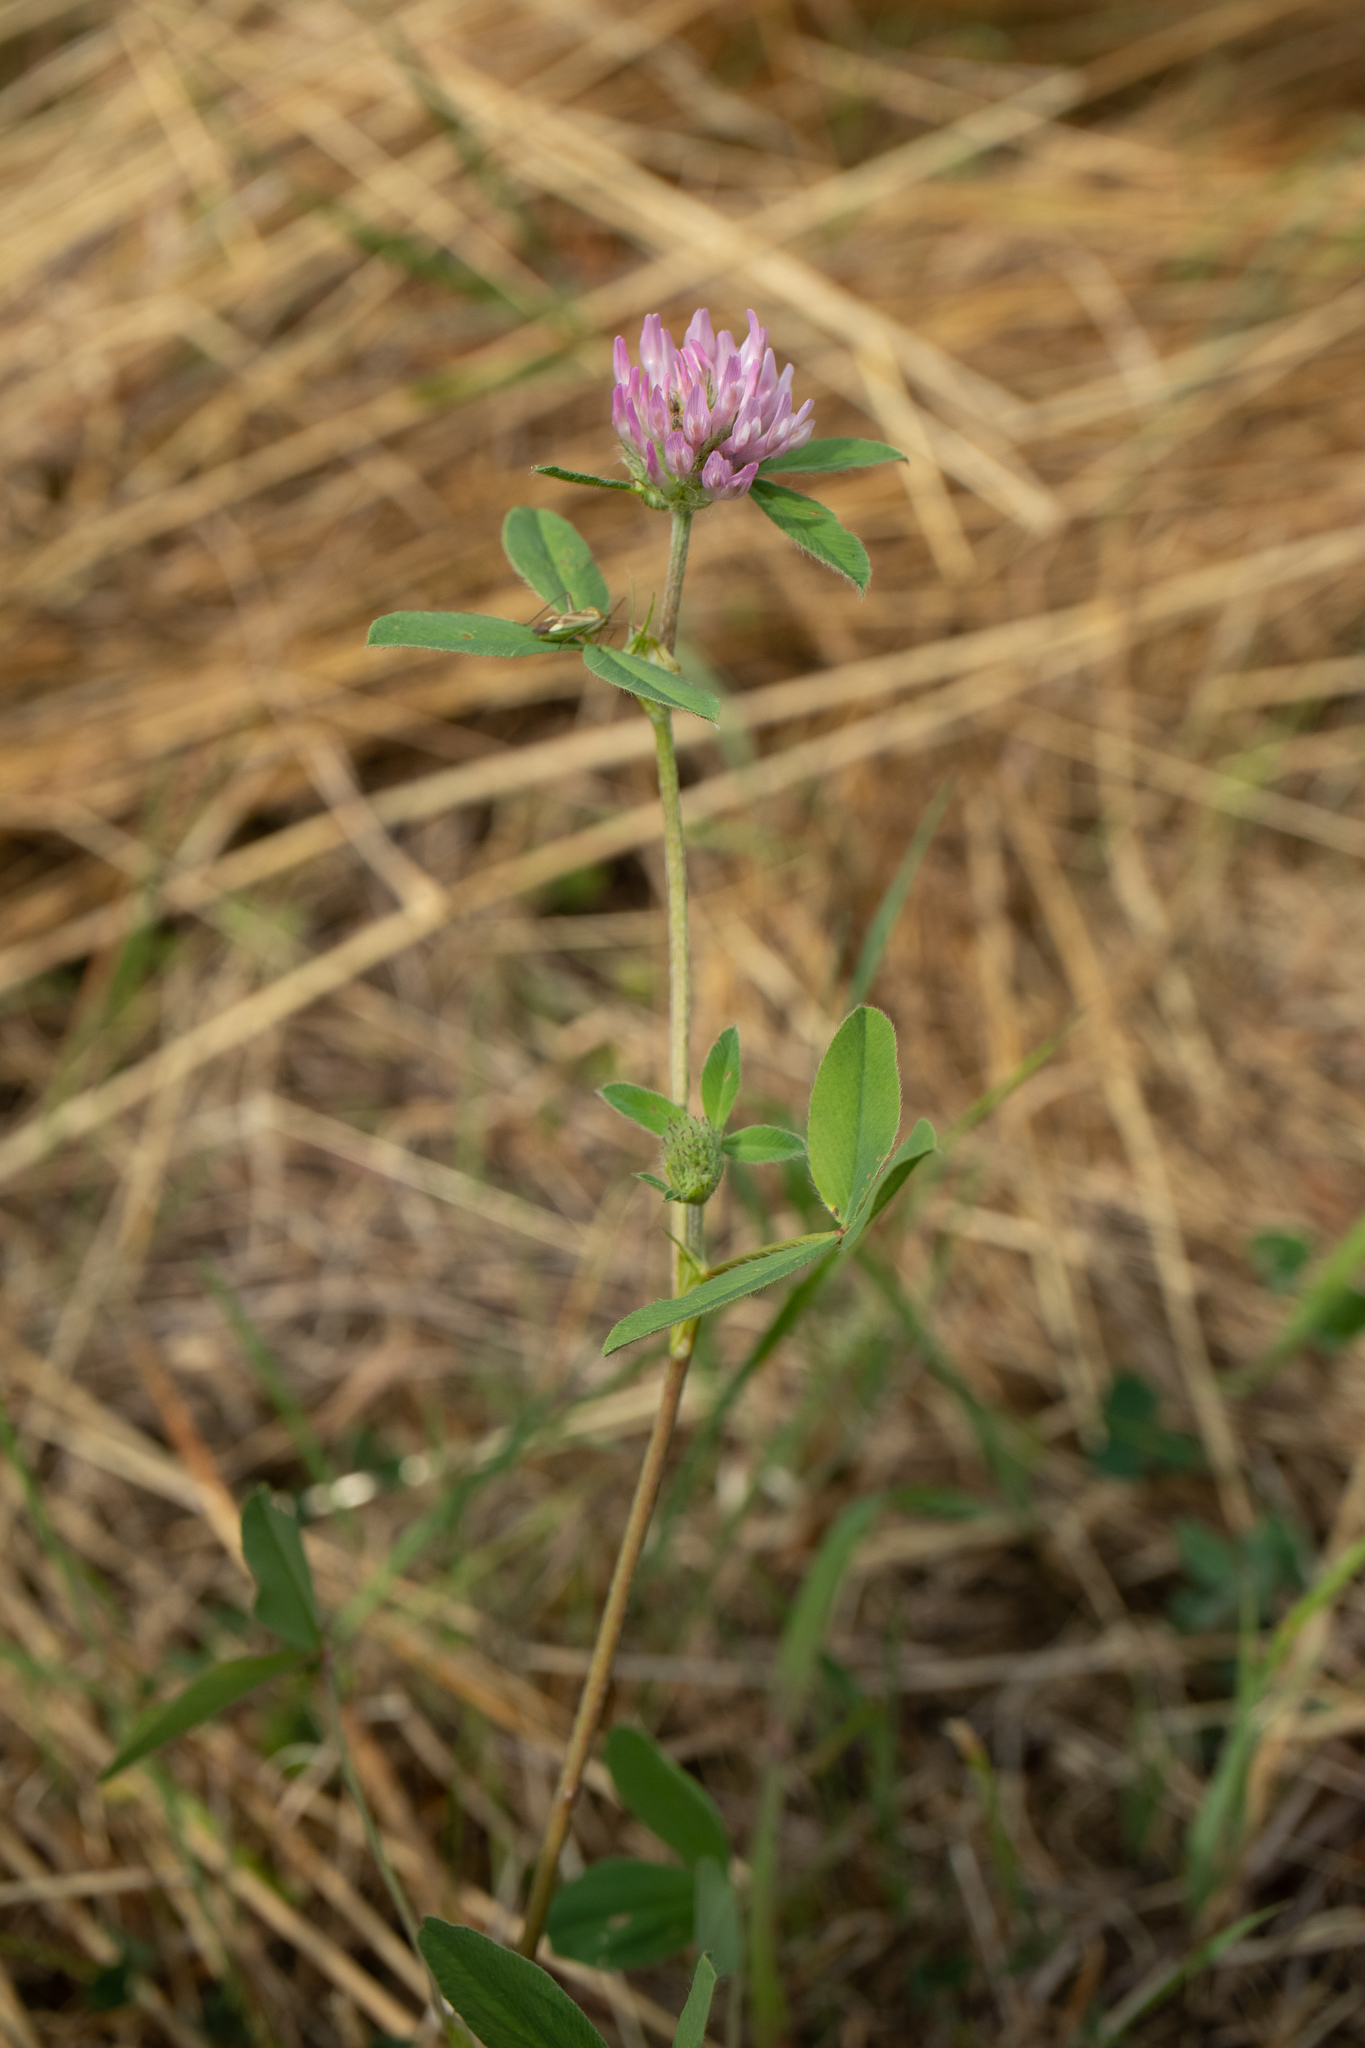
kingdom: Plantae
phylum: Tracheophyta
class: Magnoliopsida
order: Fabales
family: Fabaceae
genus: Trifolium
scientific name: Trifolium pratense
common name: Red clover
